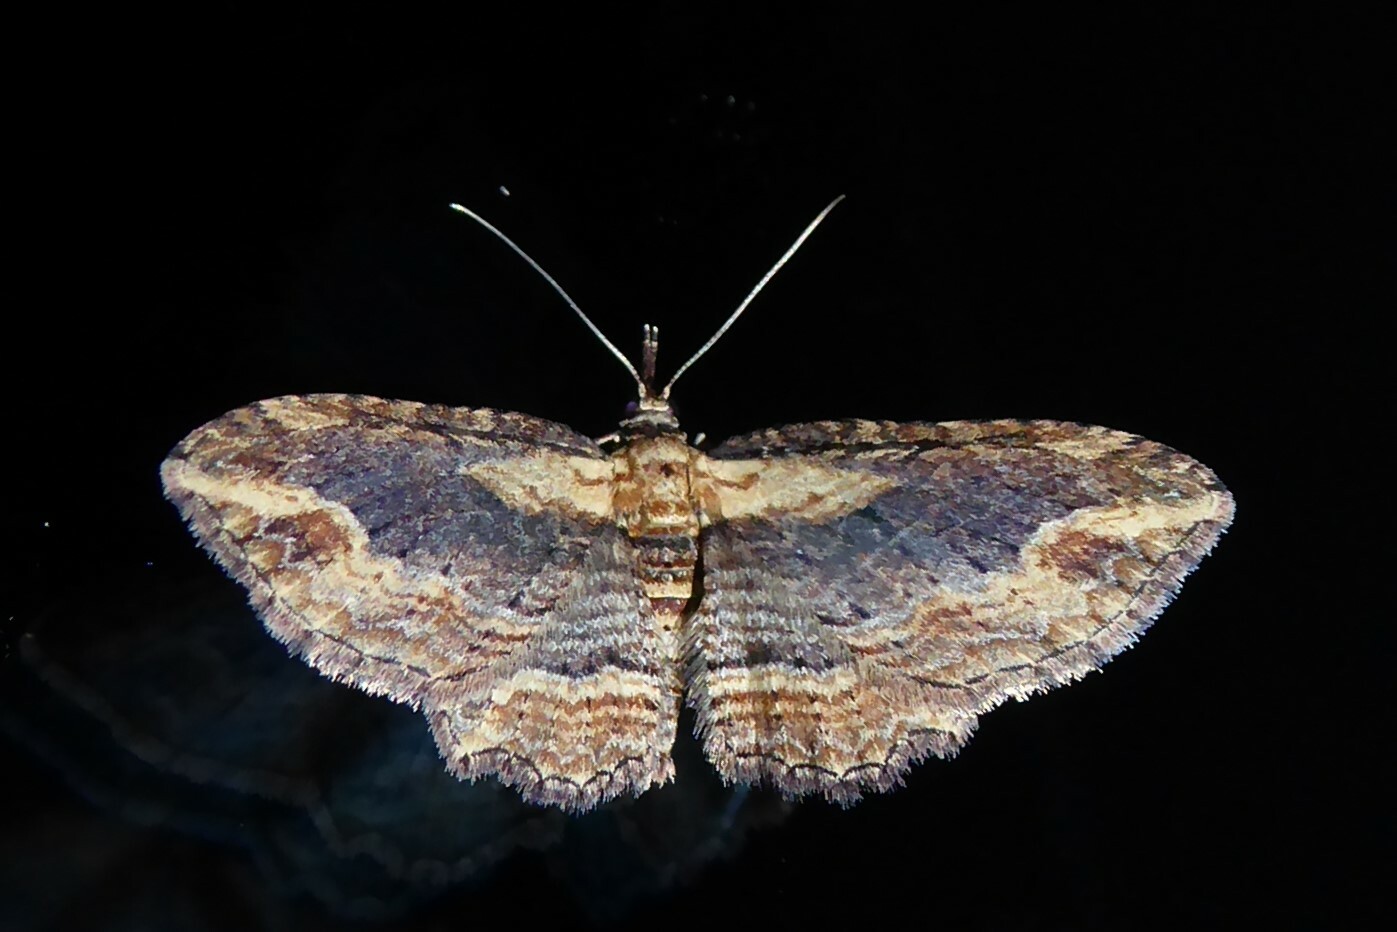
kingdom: Animalia
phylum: Arthropoda
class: Insecta
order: Lepidoptera
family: Geometridae
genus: Chloroclystis
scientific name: Chloroclystis filata
